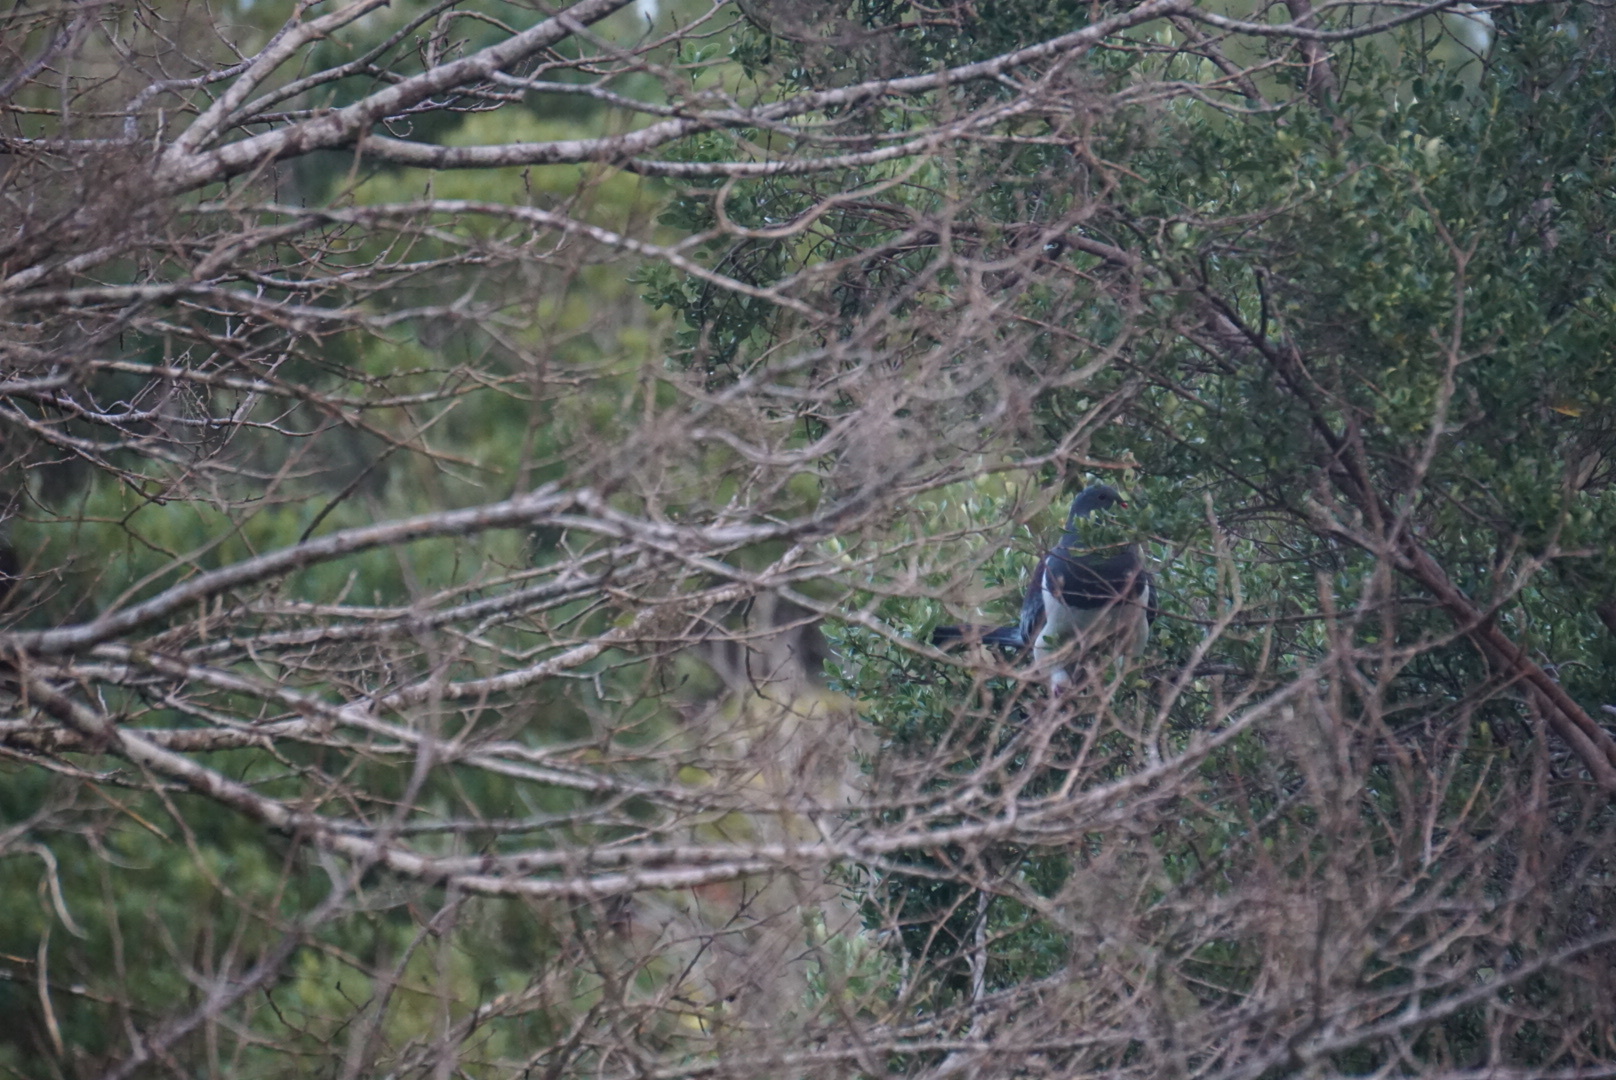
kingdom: Animalia
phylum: Chordata
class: Aves
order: Columbiformes
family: Columbidae
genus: Hemiphaga
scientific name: Hemiphaga chathamensis
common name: Chatham pigeon
